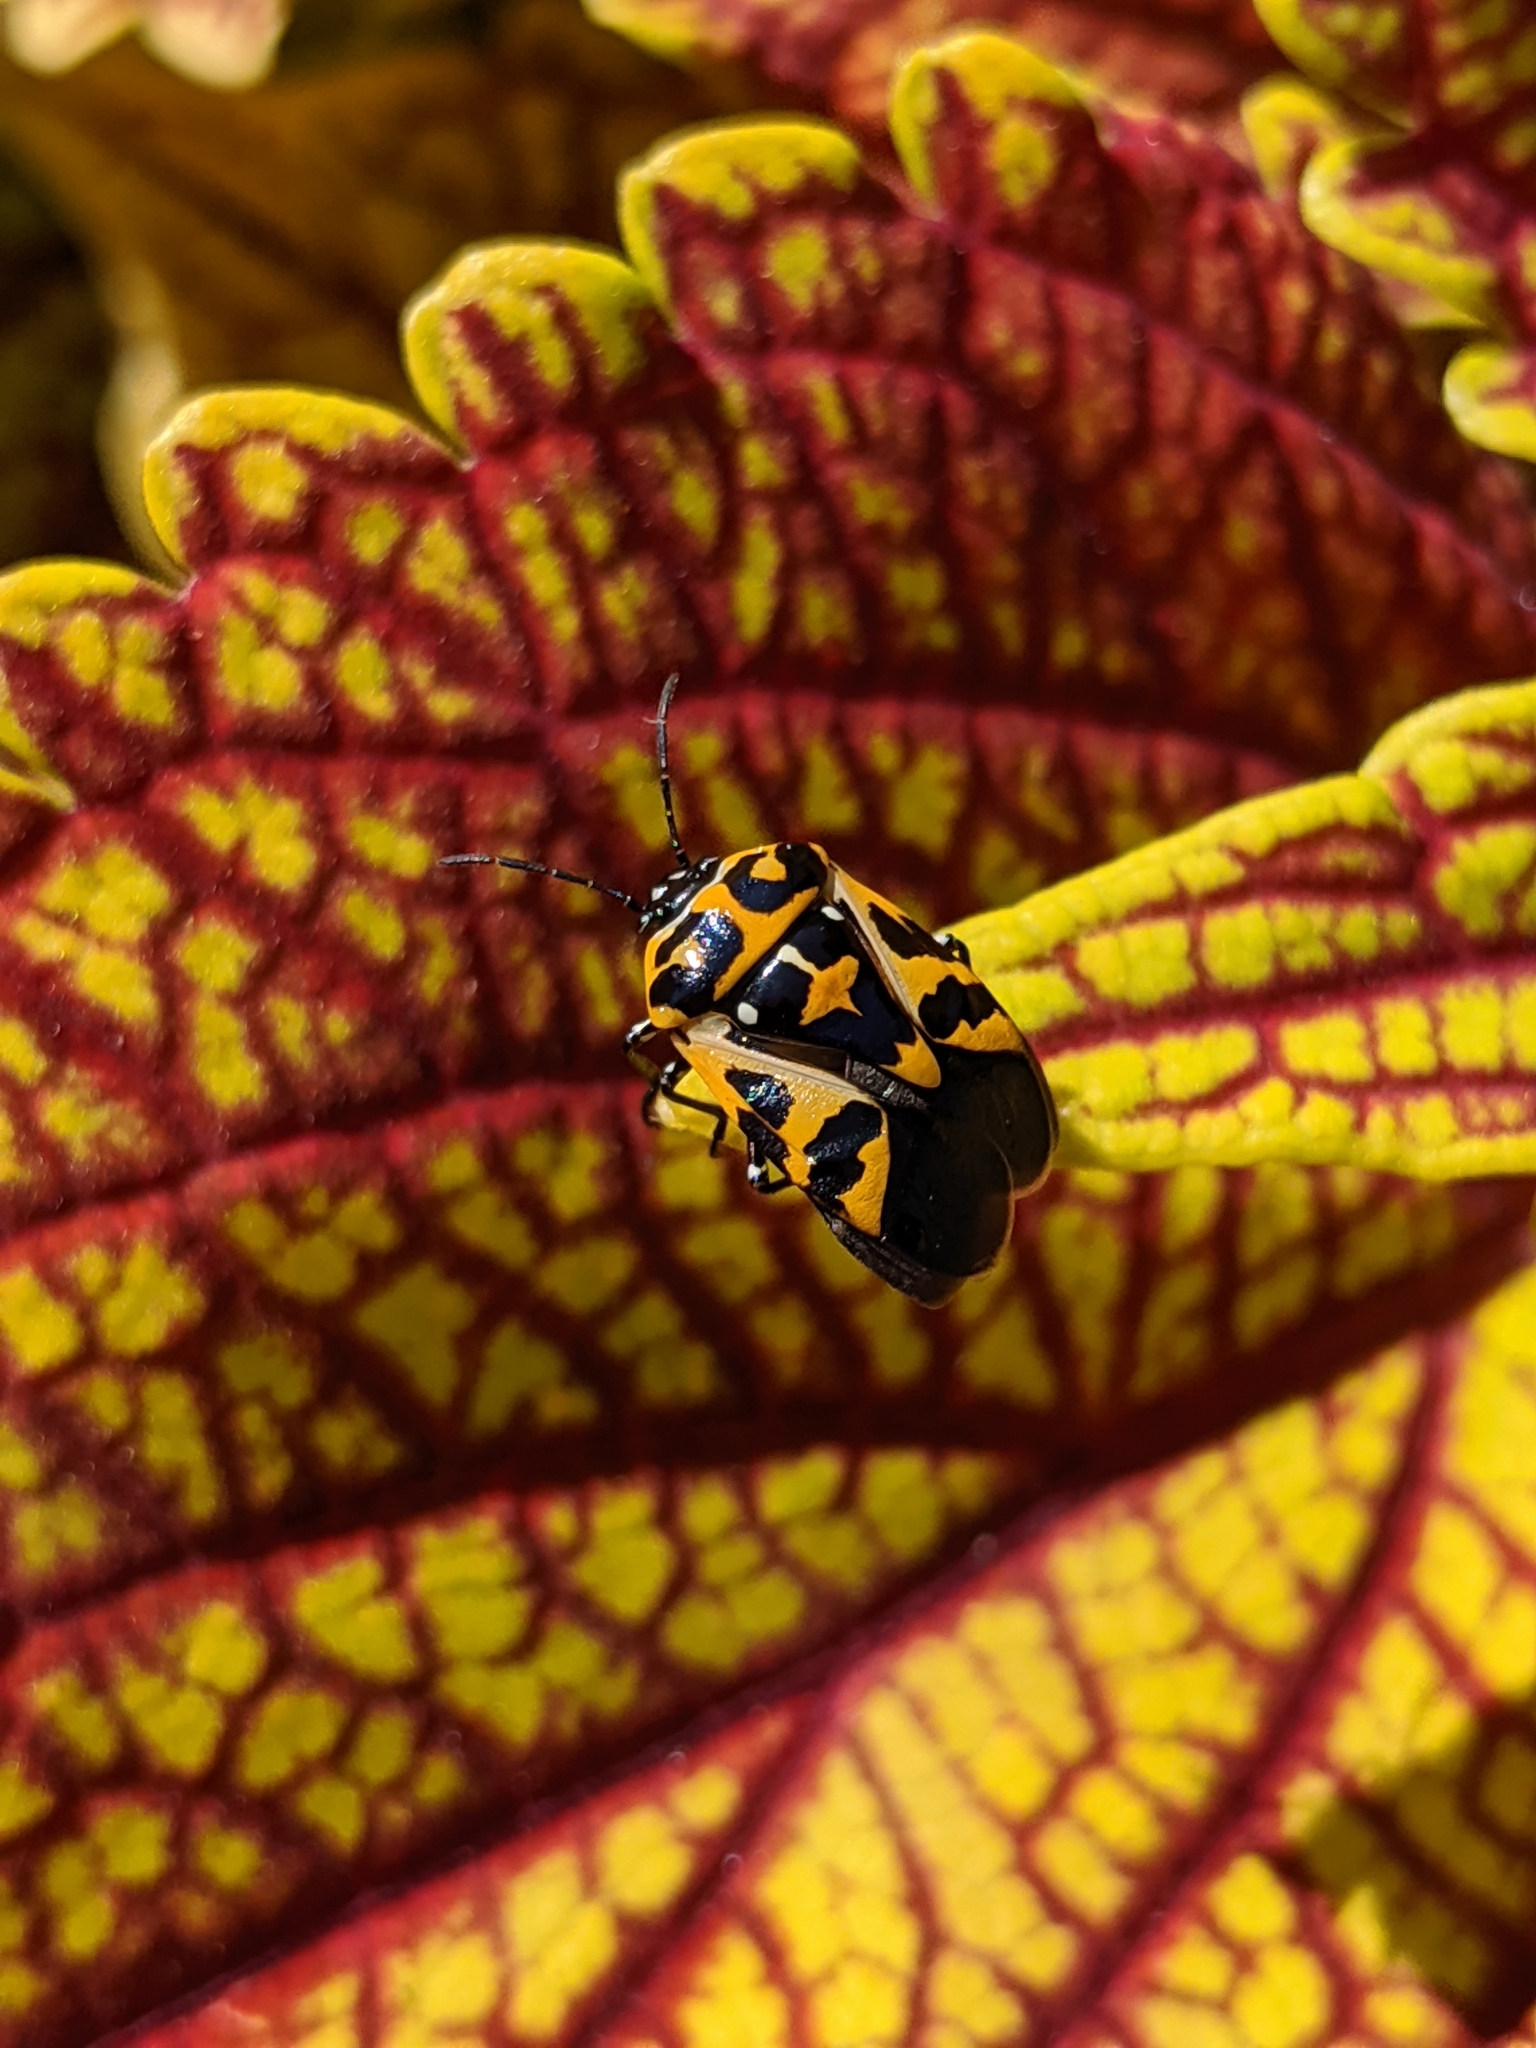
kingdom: Animalia
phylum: Arthropoda
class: Insecta
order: Hemiptera
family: Pentatomidae
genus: Murgantia
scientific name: Murgantia histrionica
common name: Harlequin bug
